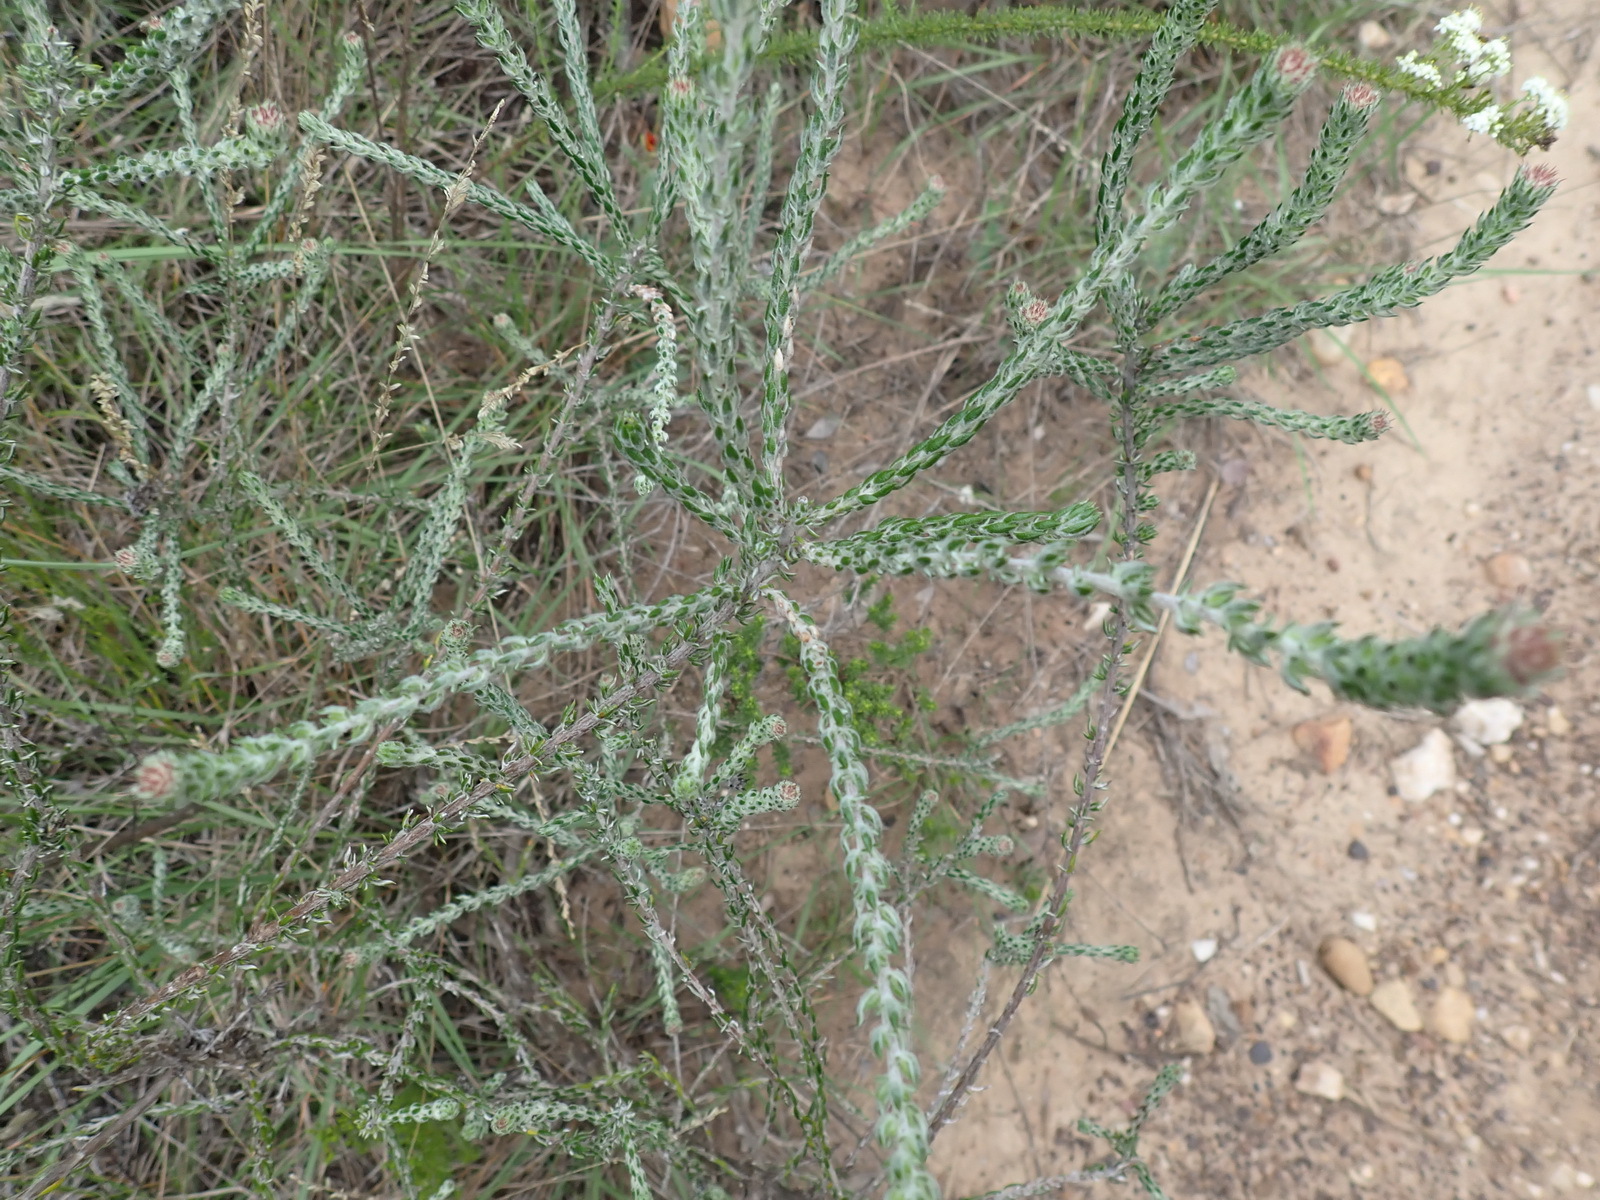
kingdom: Plantae
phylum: Tracheophyta
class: Magnoliopsida
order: Asterales
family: Asteraceae
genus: Metalasia
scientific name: Metalasia pungens
